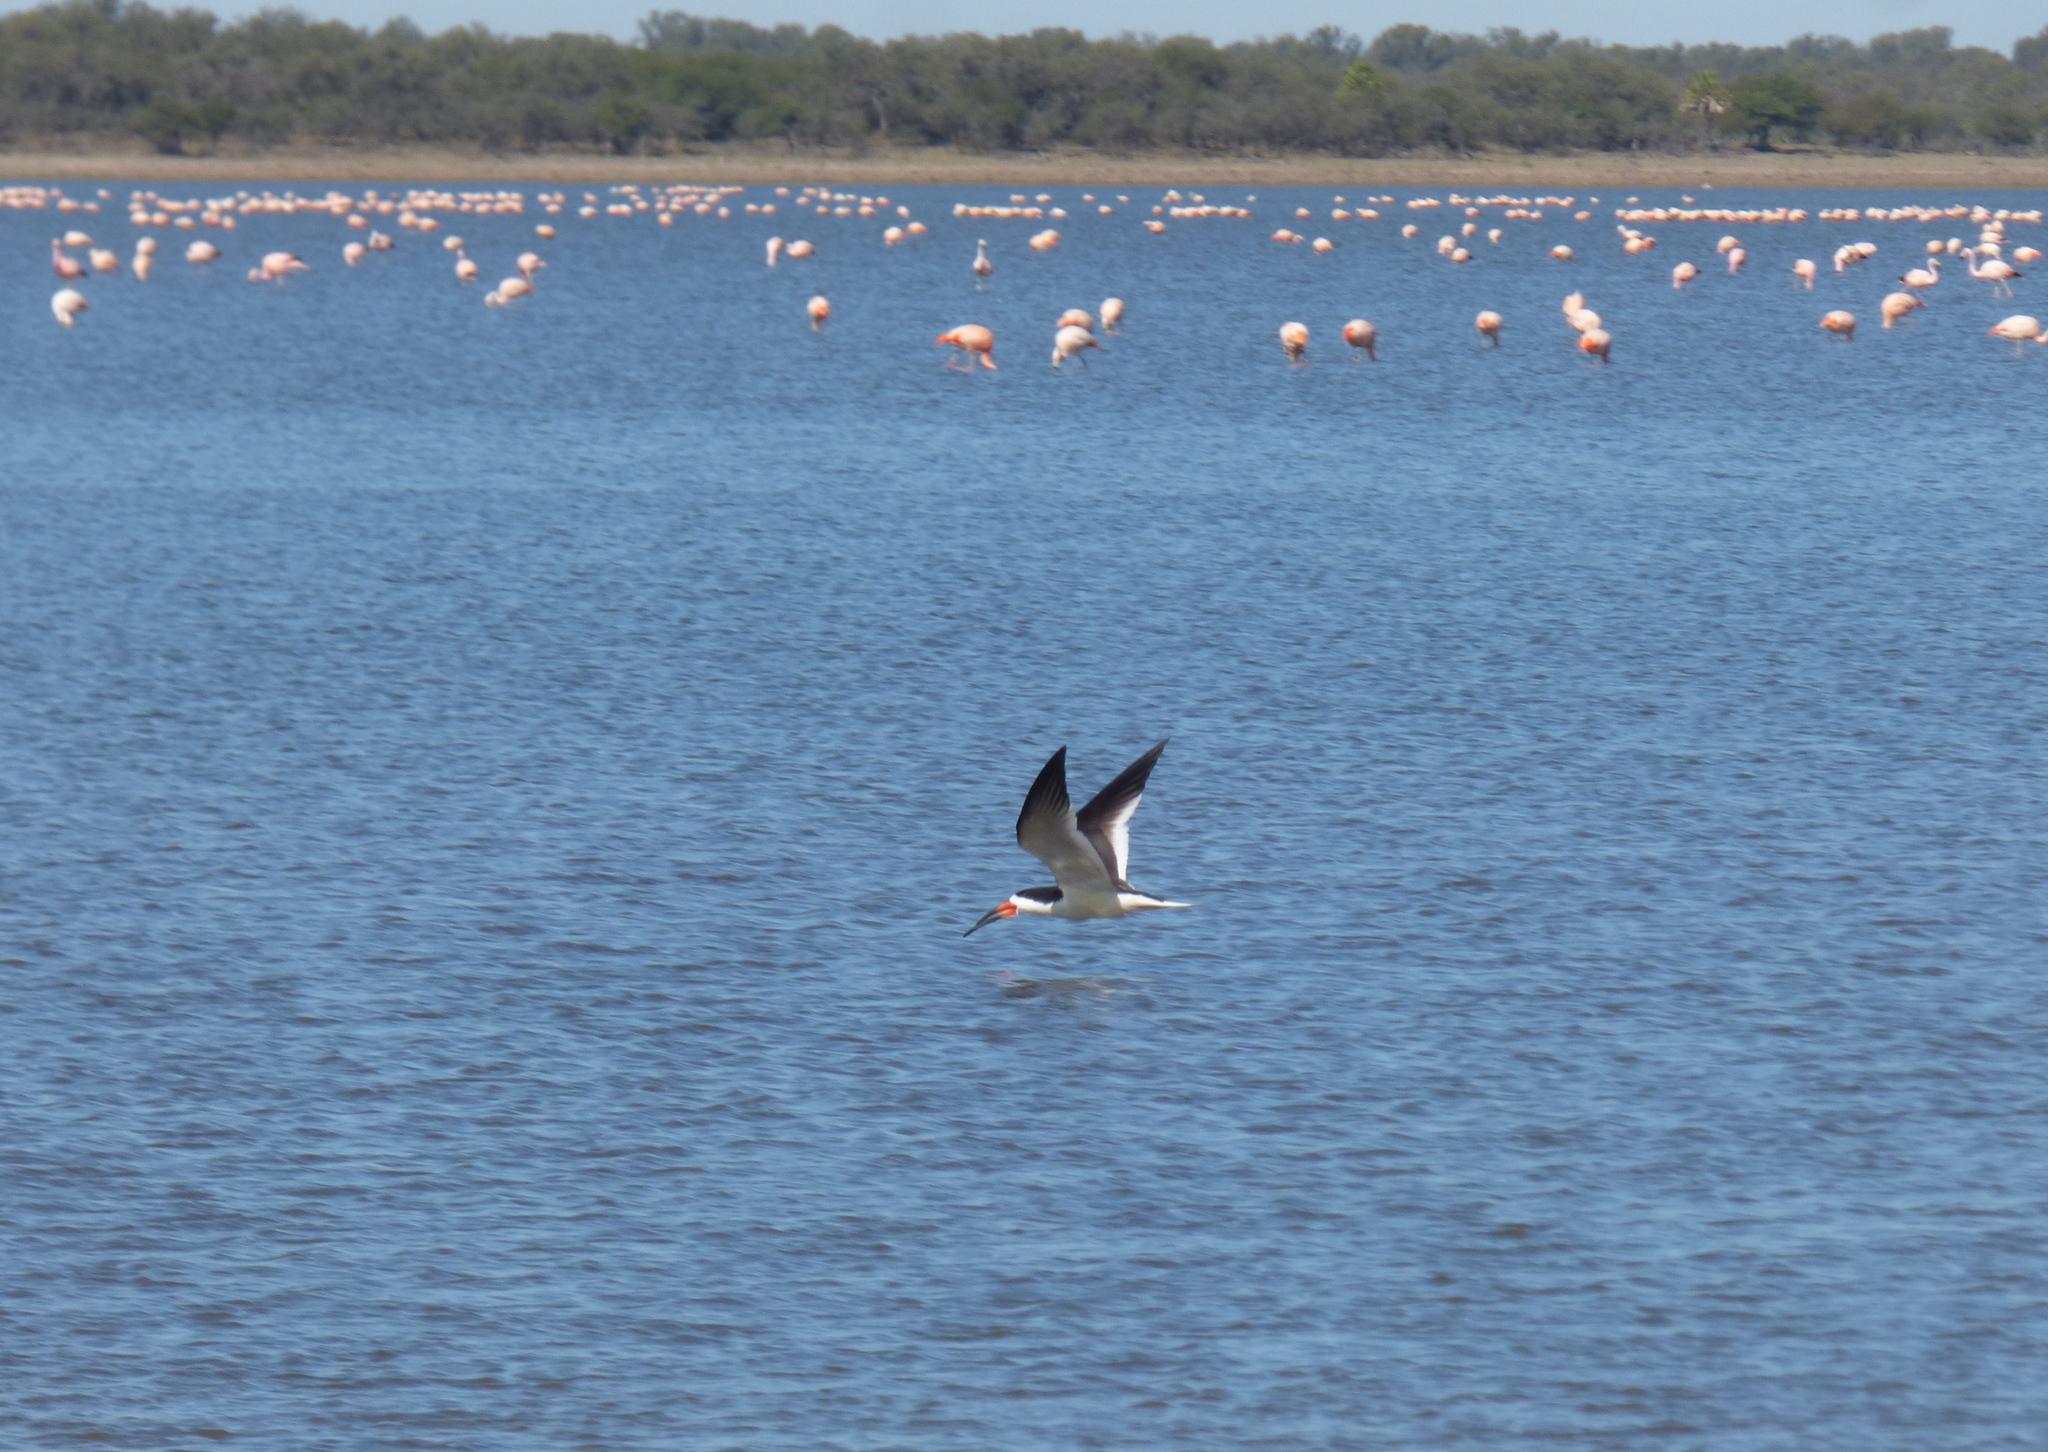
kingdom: Animalia
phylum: Chordata
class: Aves
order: Charadriiformes
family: Laridae
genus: Rynchops
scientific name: Rynchops niger
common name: Black skimmer
